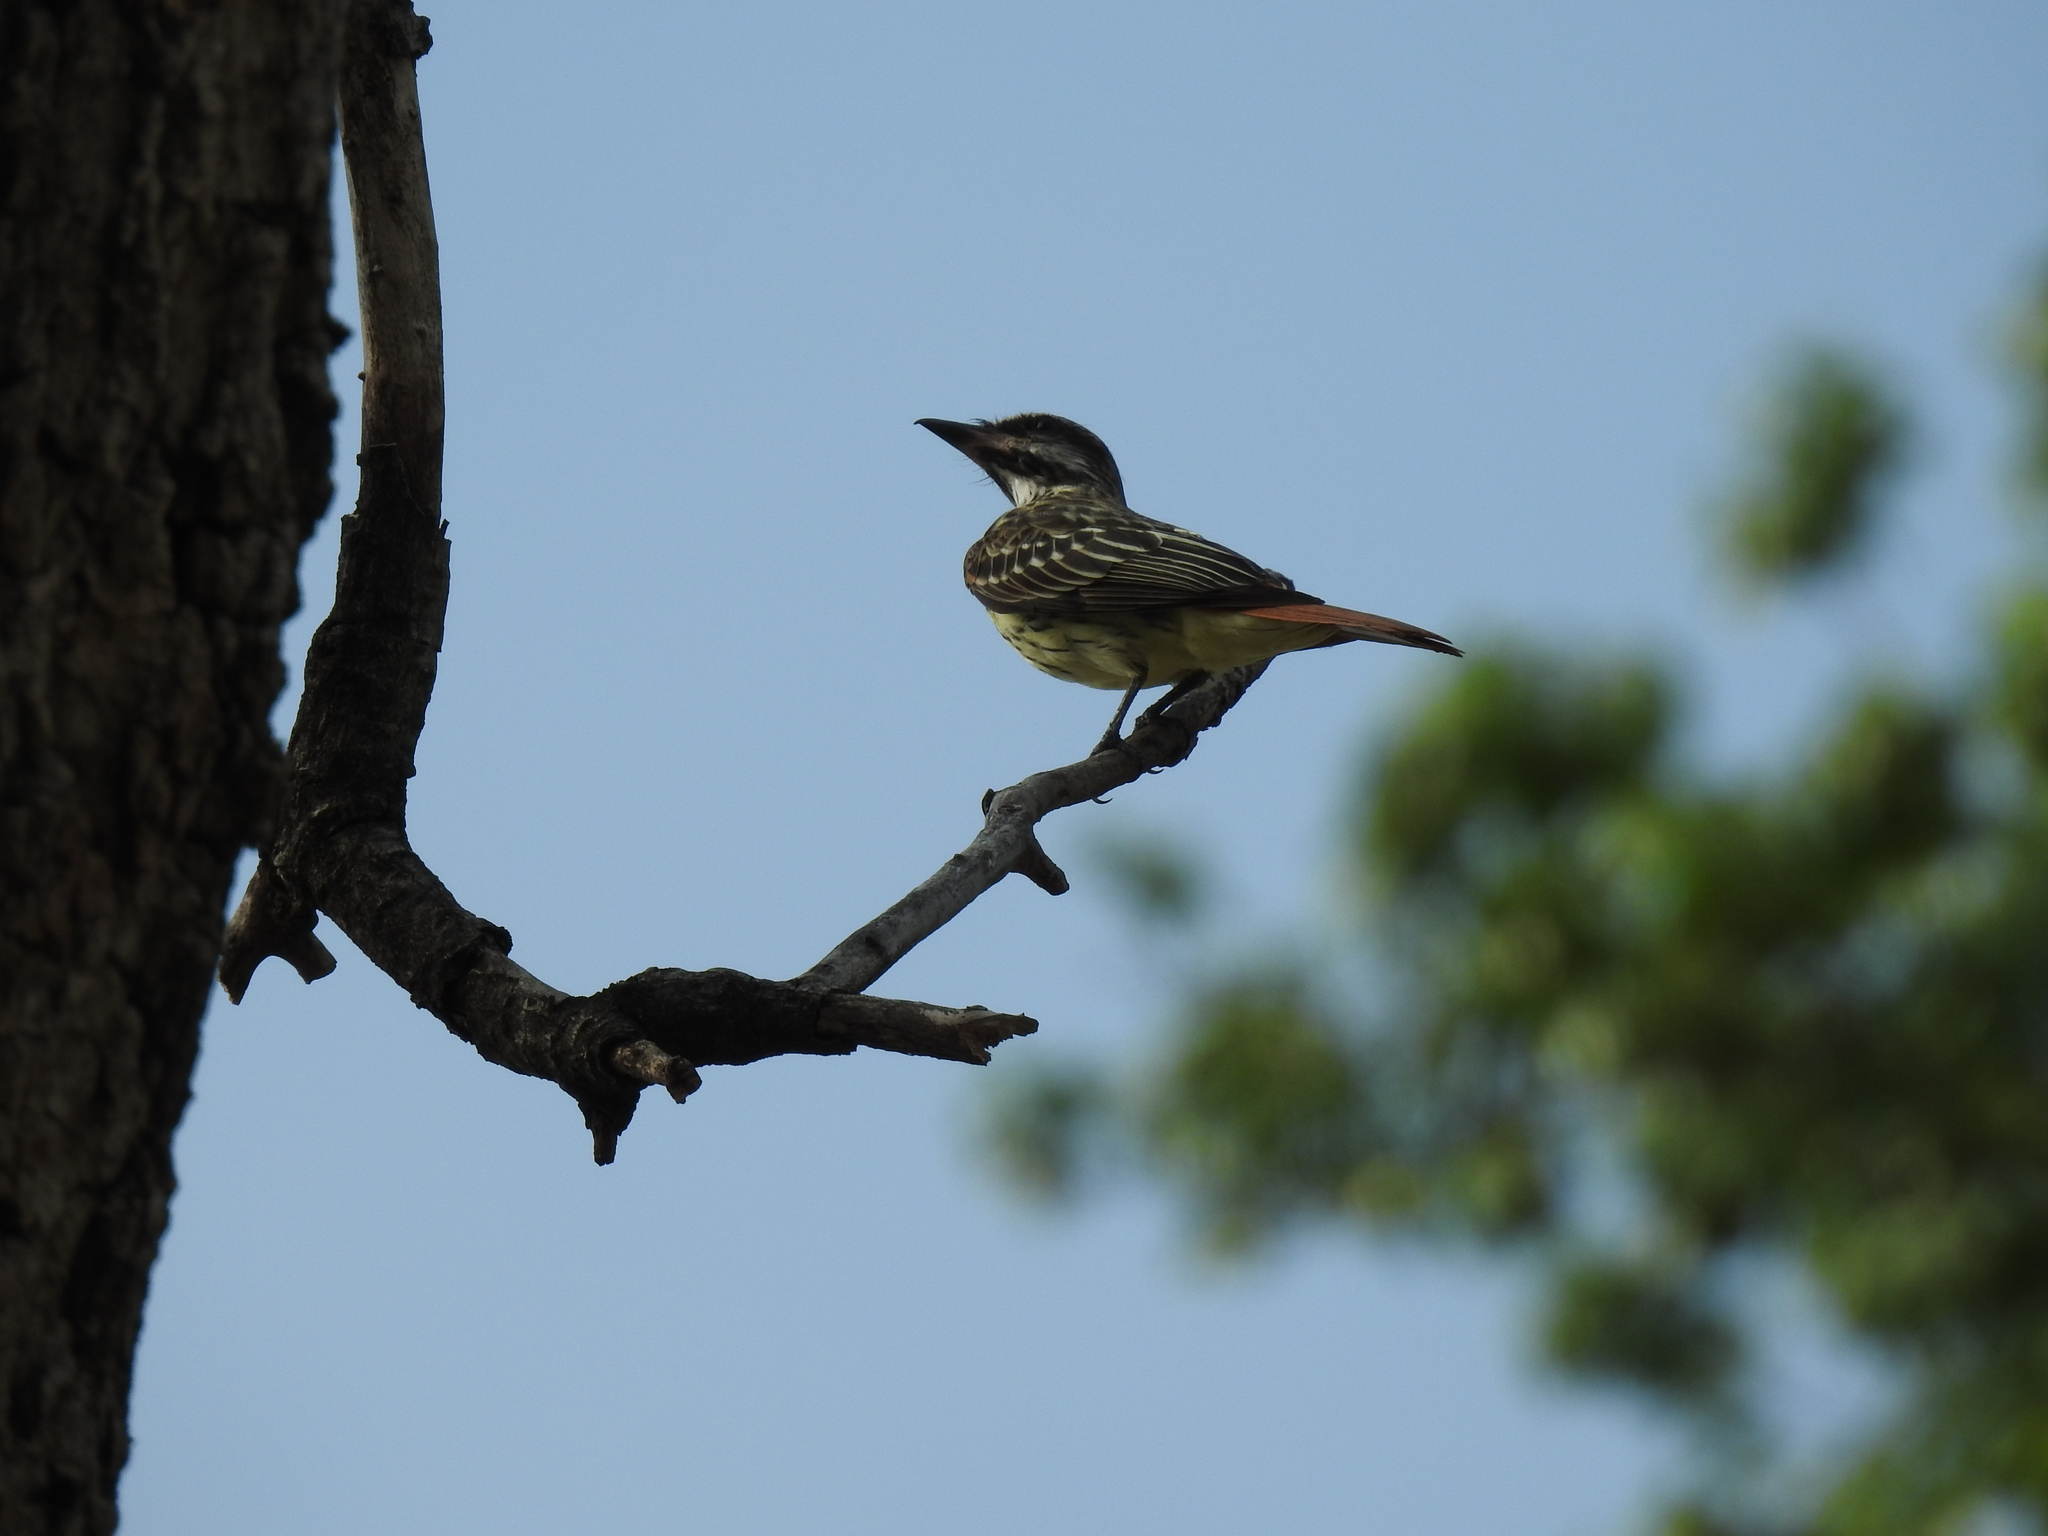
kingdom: Animalia
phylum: Chordata
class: Aves
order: Passeriformes
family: Tyrannidae
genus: Myiodynastes
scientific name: Myiodynastes luteiventris
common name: Sulphur-bellied flycatcher
